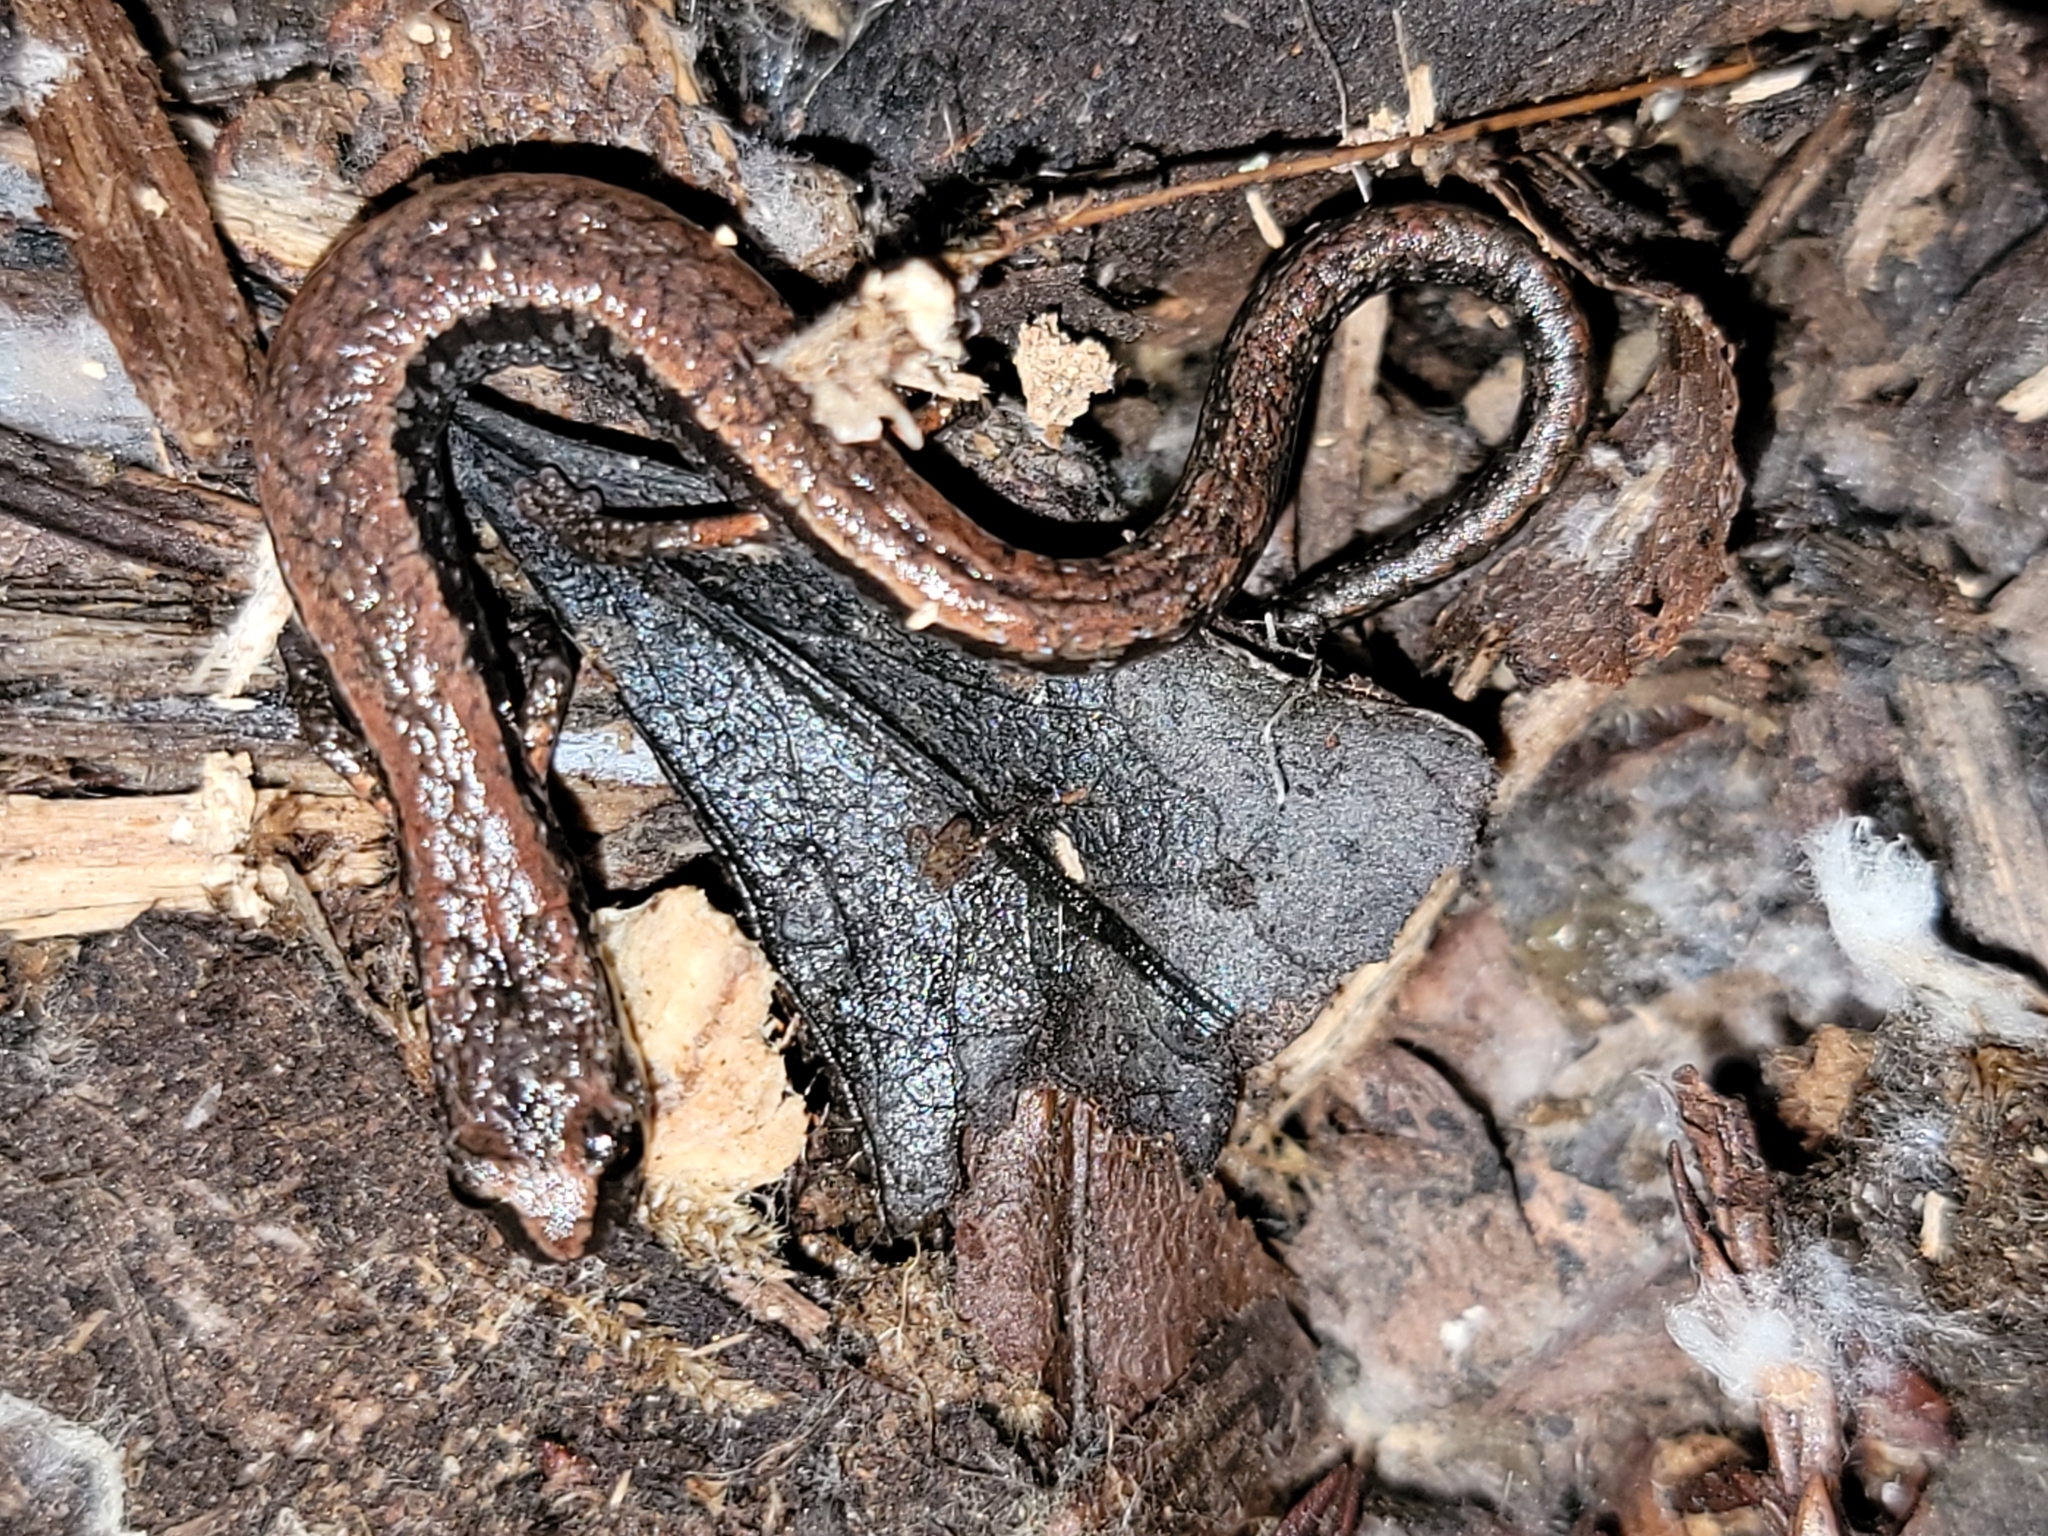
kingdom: Animalia
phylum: Chordata
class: Amphibia
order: Caudata
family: Plethodontidae
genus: Batrachoseps
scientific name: Batrachoseps attenuatus
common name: California slender salamander
